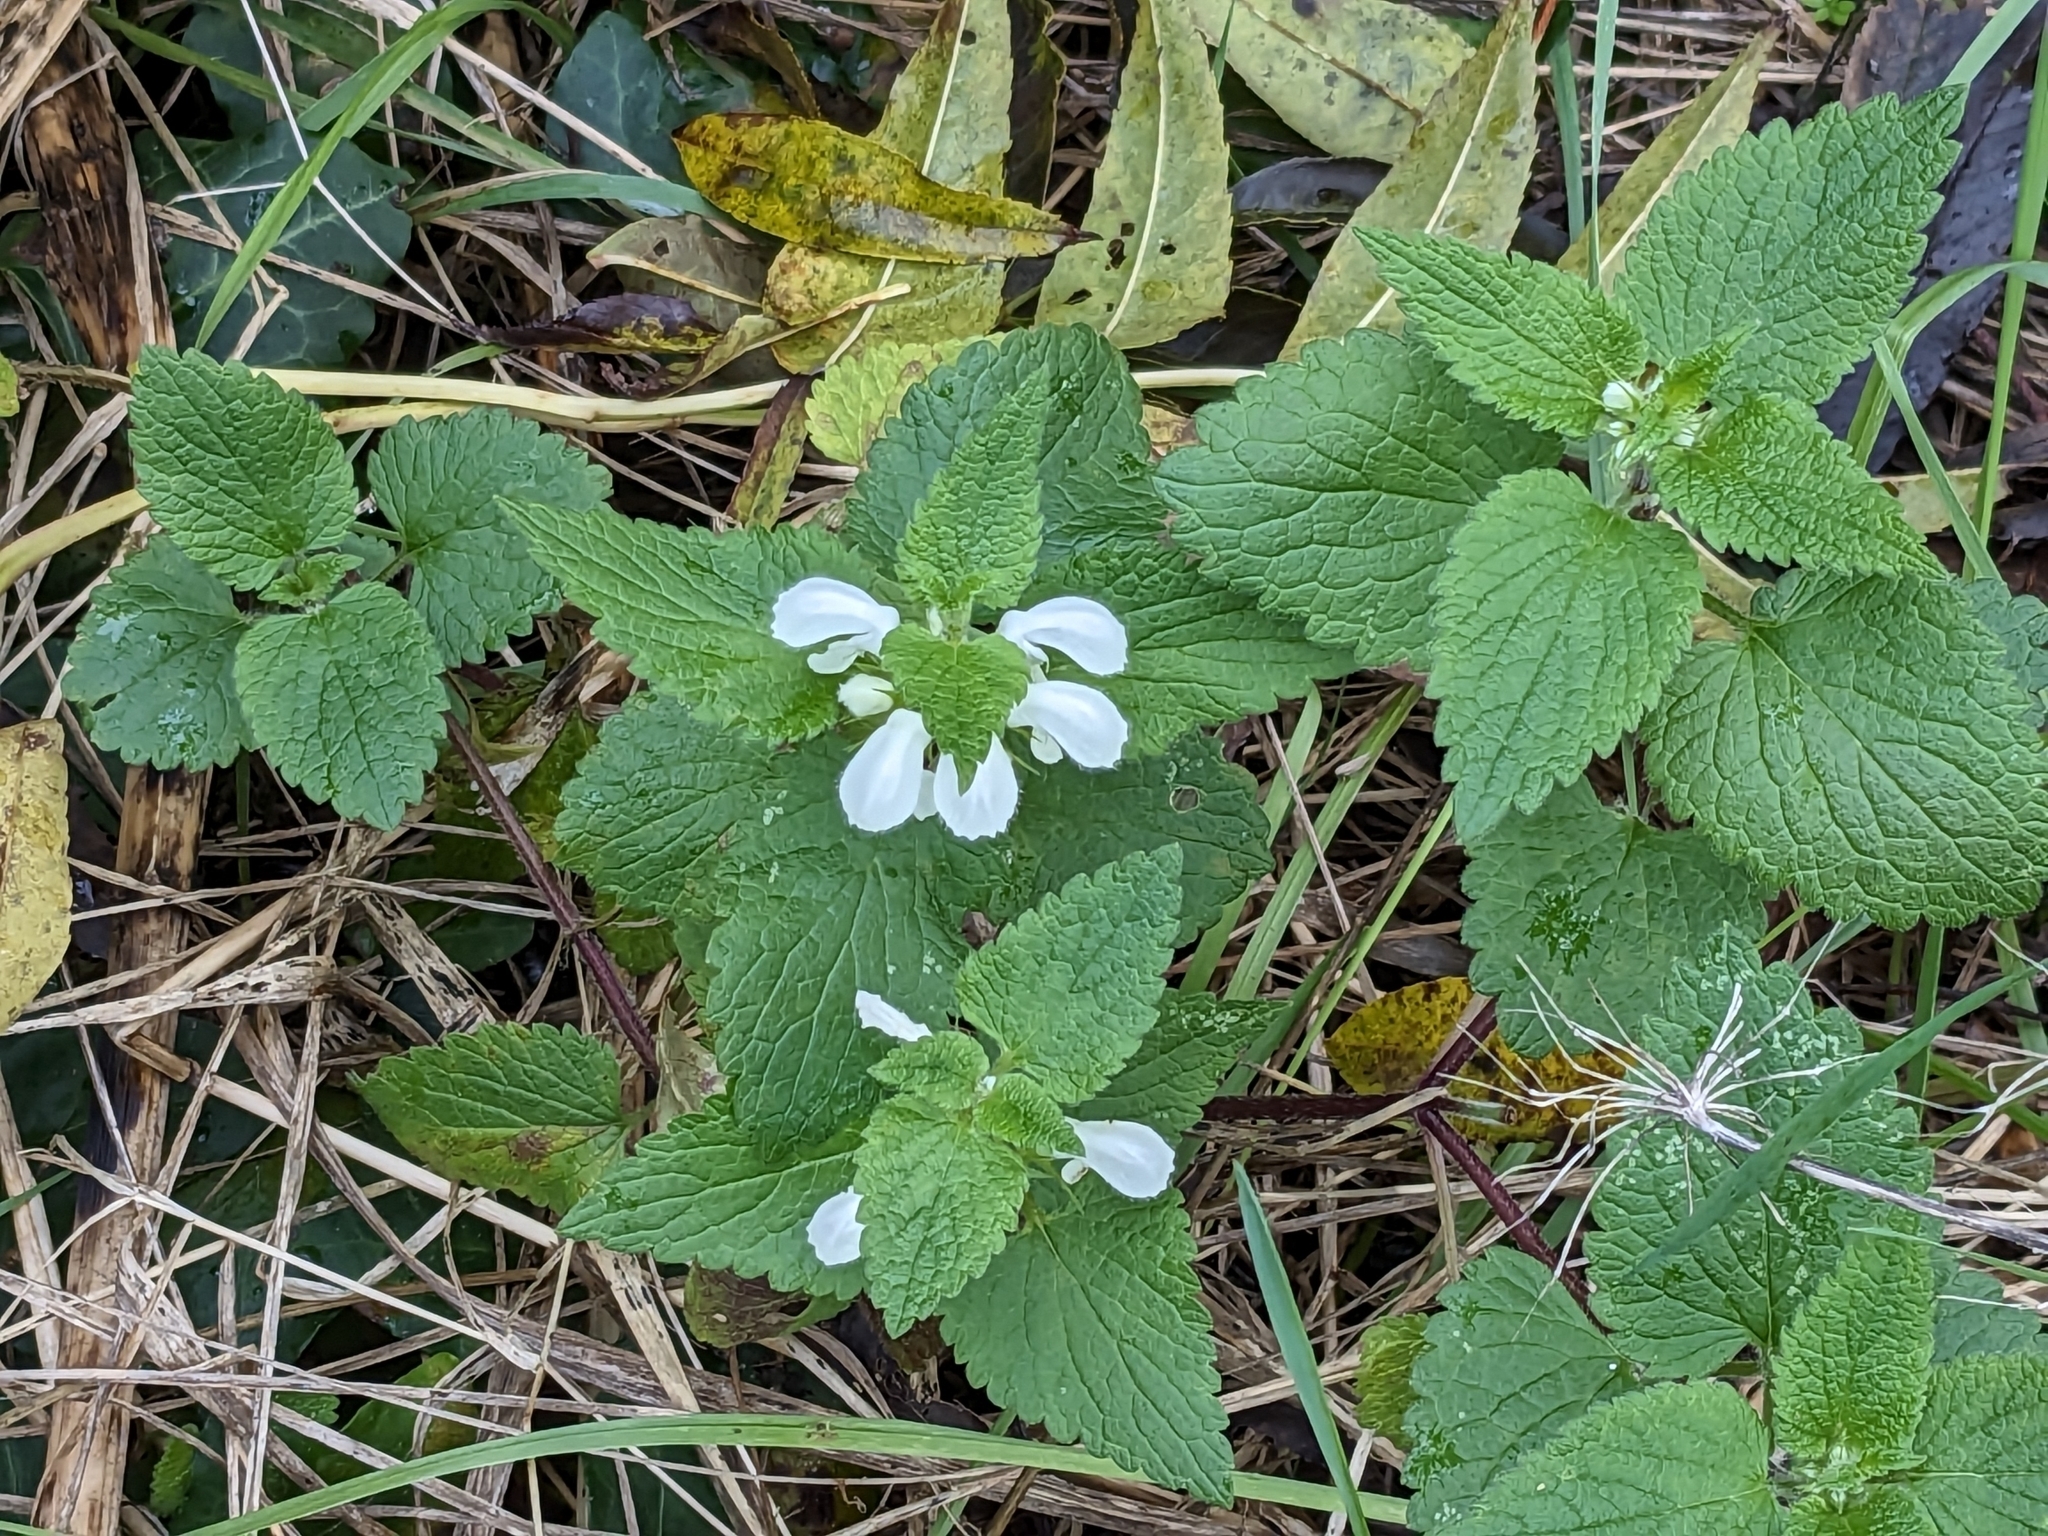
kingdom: Plantae
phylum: Tracheophyta
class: Magnoliopsida
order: Lamiales
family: Lamiaceae
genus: Lamium
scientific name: Lamium album
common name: White dead-nettle
